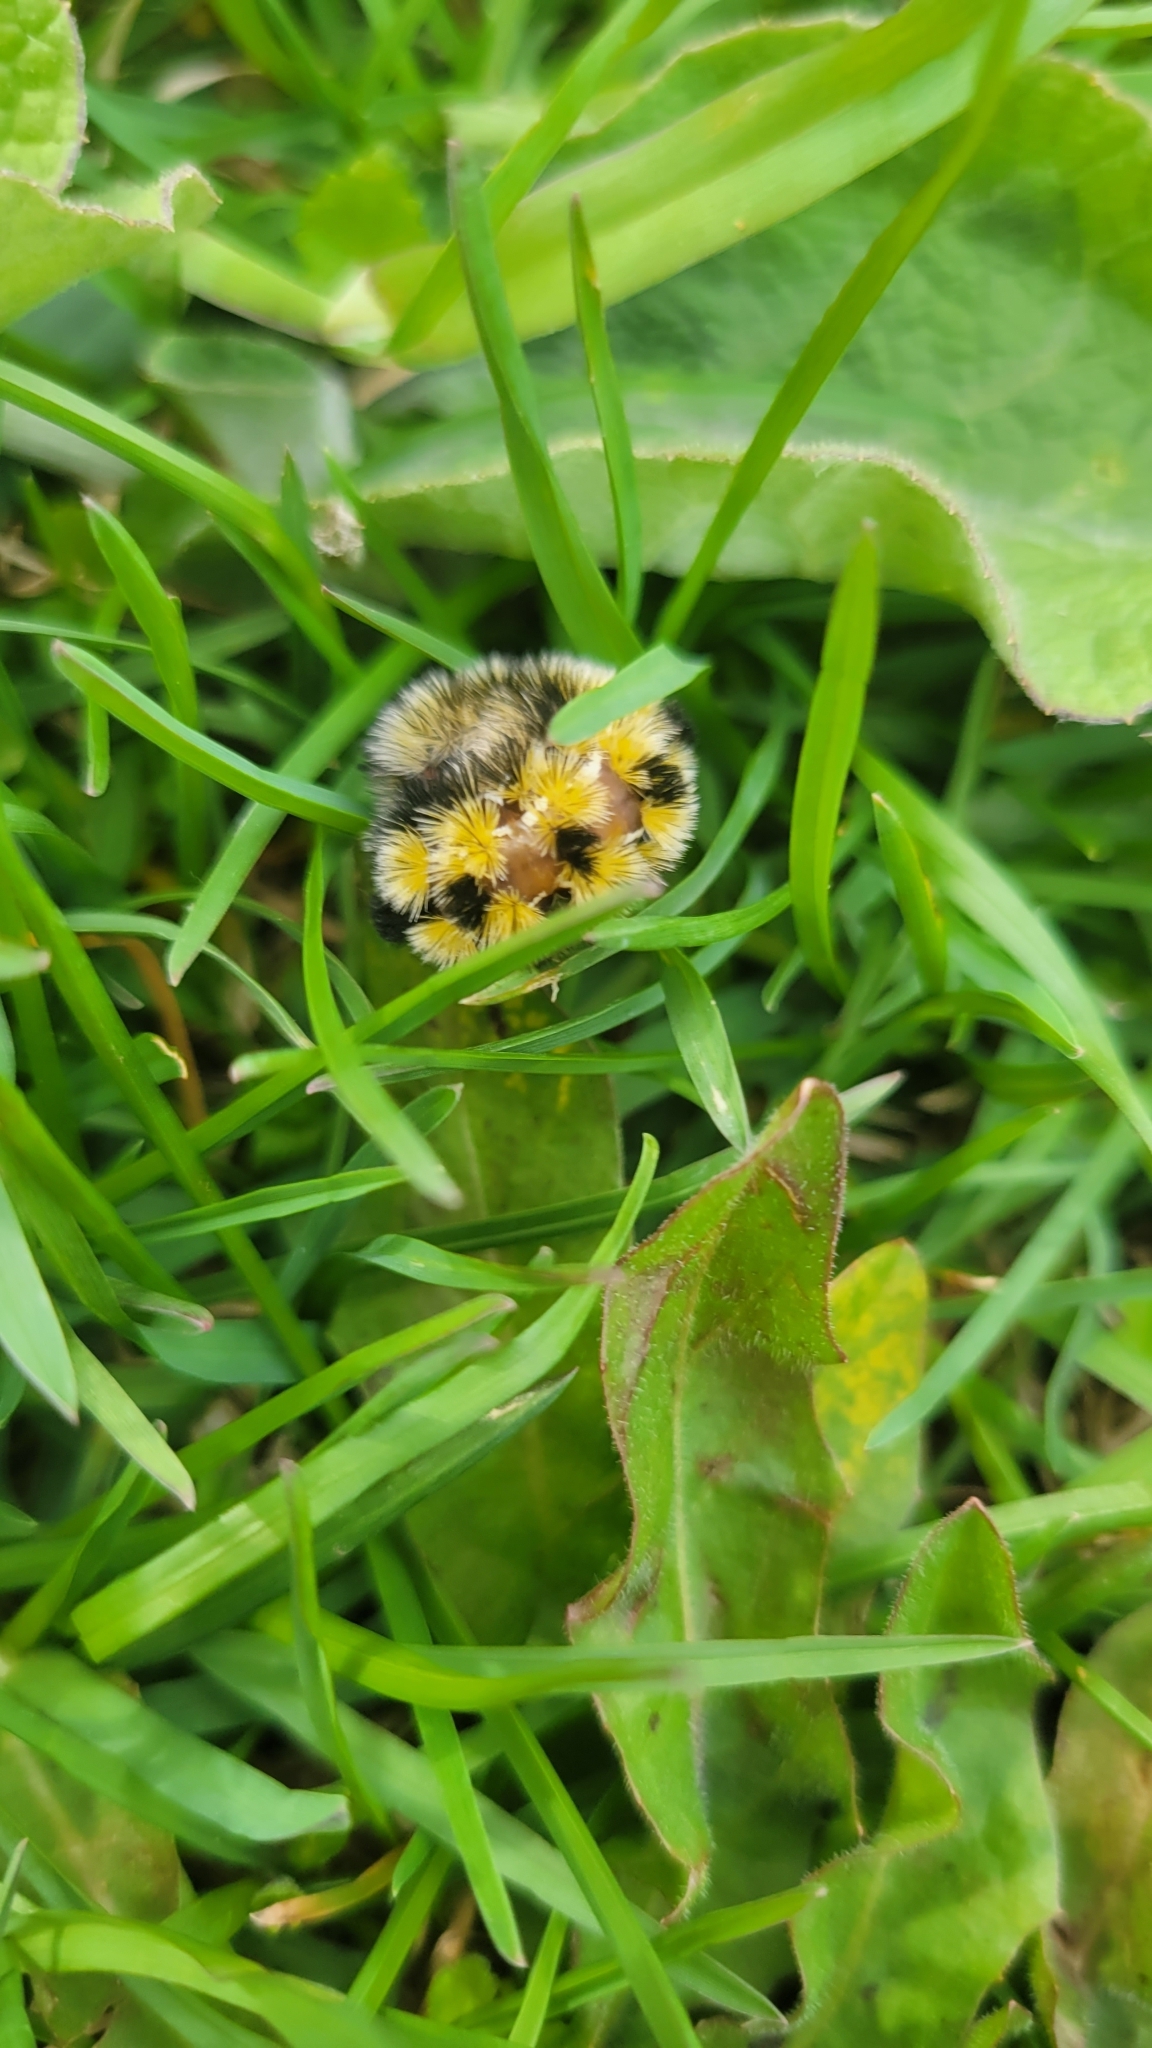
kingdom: Animalia
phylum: Arthropoda
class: Insecta
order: Lepidoptera
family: Erebidae
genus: Ctenucha
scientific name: Ctenucha virginica
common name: Virginia ctenucha moth
